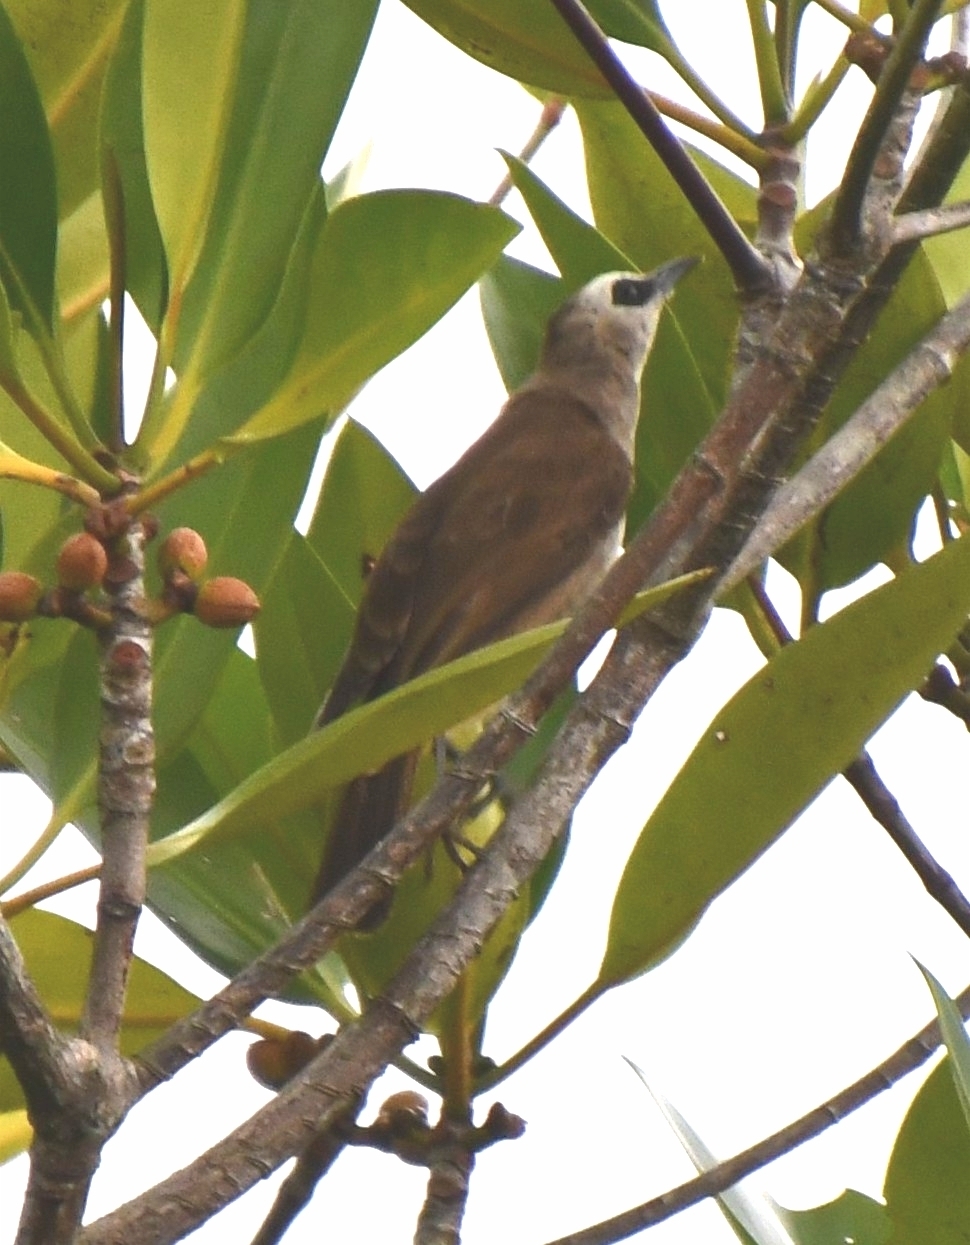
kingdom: Animalia
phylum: Chordata
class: Aves
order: Passeriformes
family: Pycnonotidae
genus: Pycnonotus
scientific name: Pycnonotus goiavier
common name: Yellow-vented bulbul
